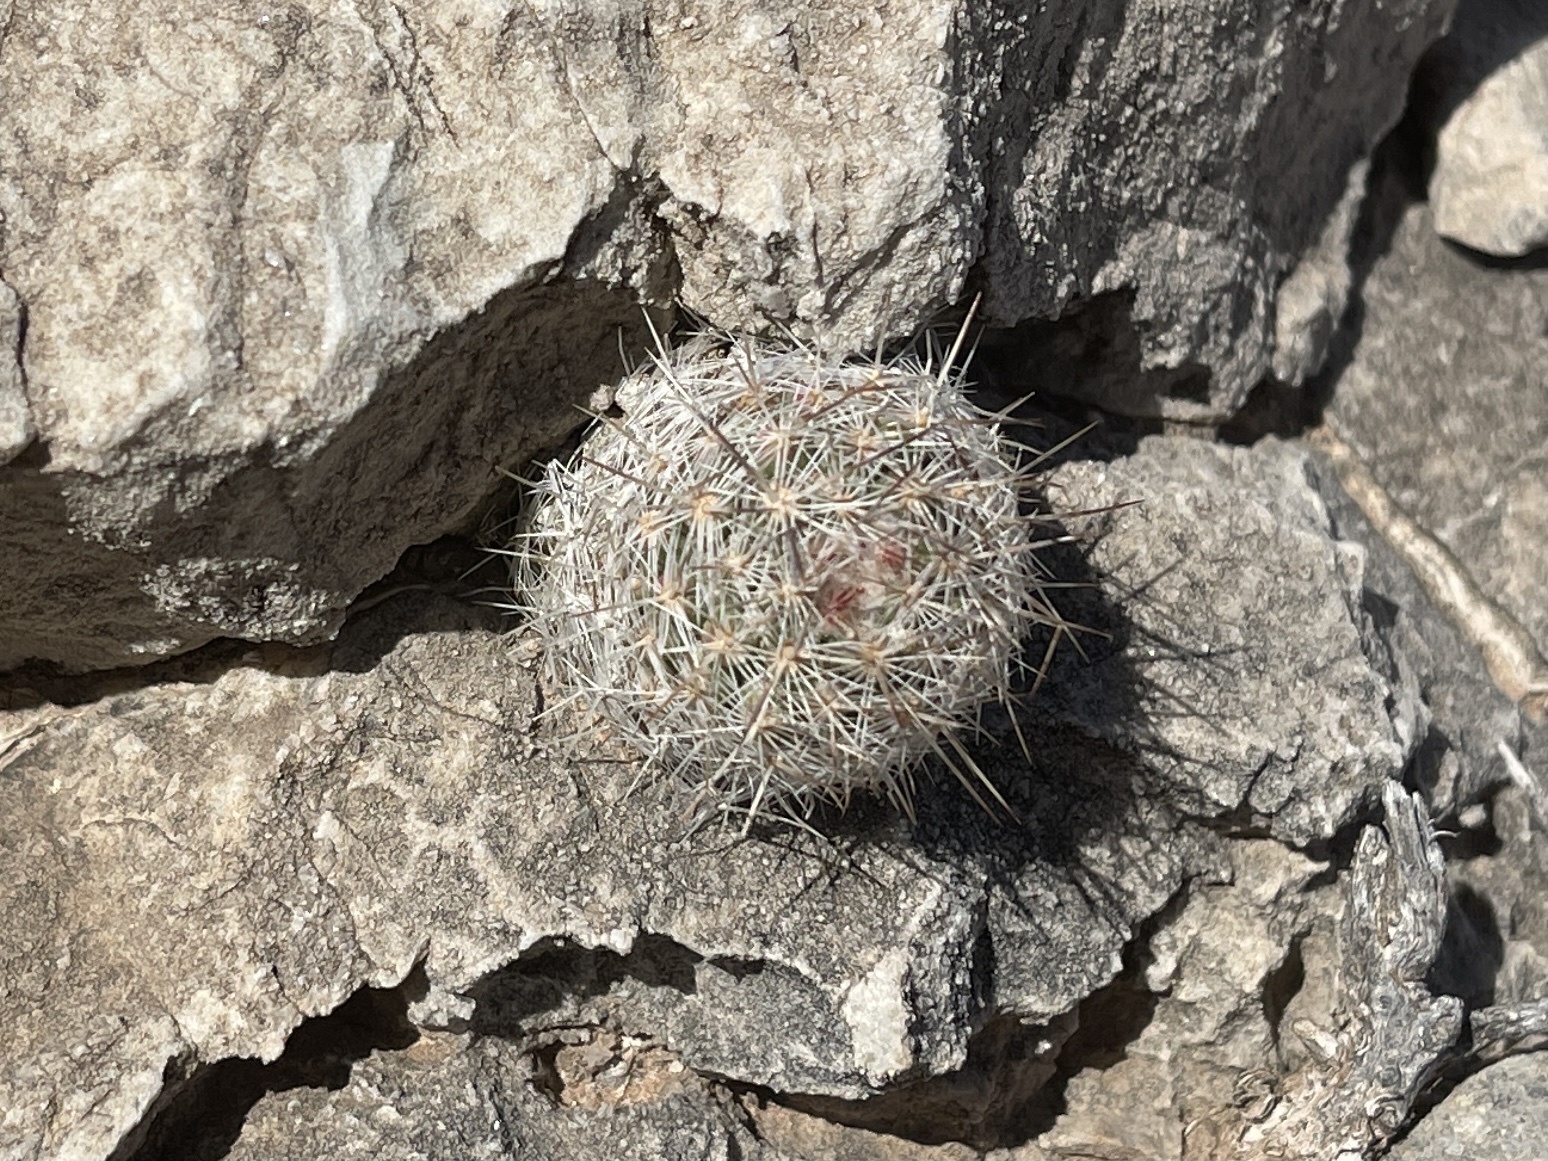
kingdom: Plantae
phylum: Tracheophyta
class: Magnoliopsida
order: Caryophyllales
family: Cactaceae
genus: Pelecyphora
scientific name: Pelecyphora tuberculosa
